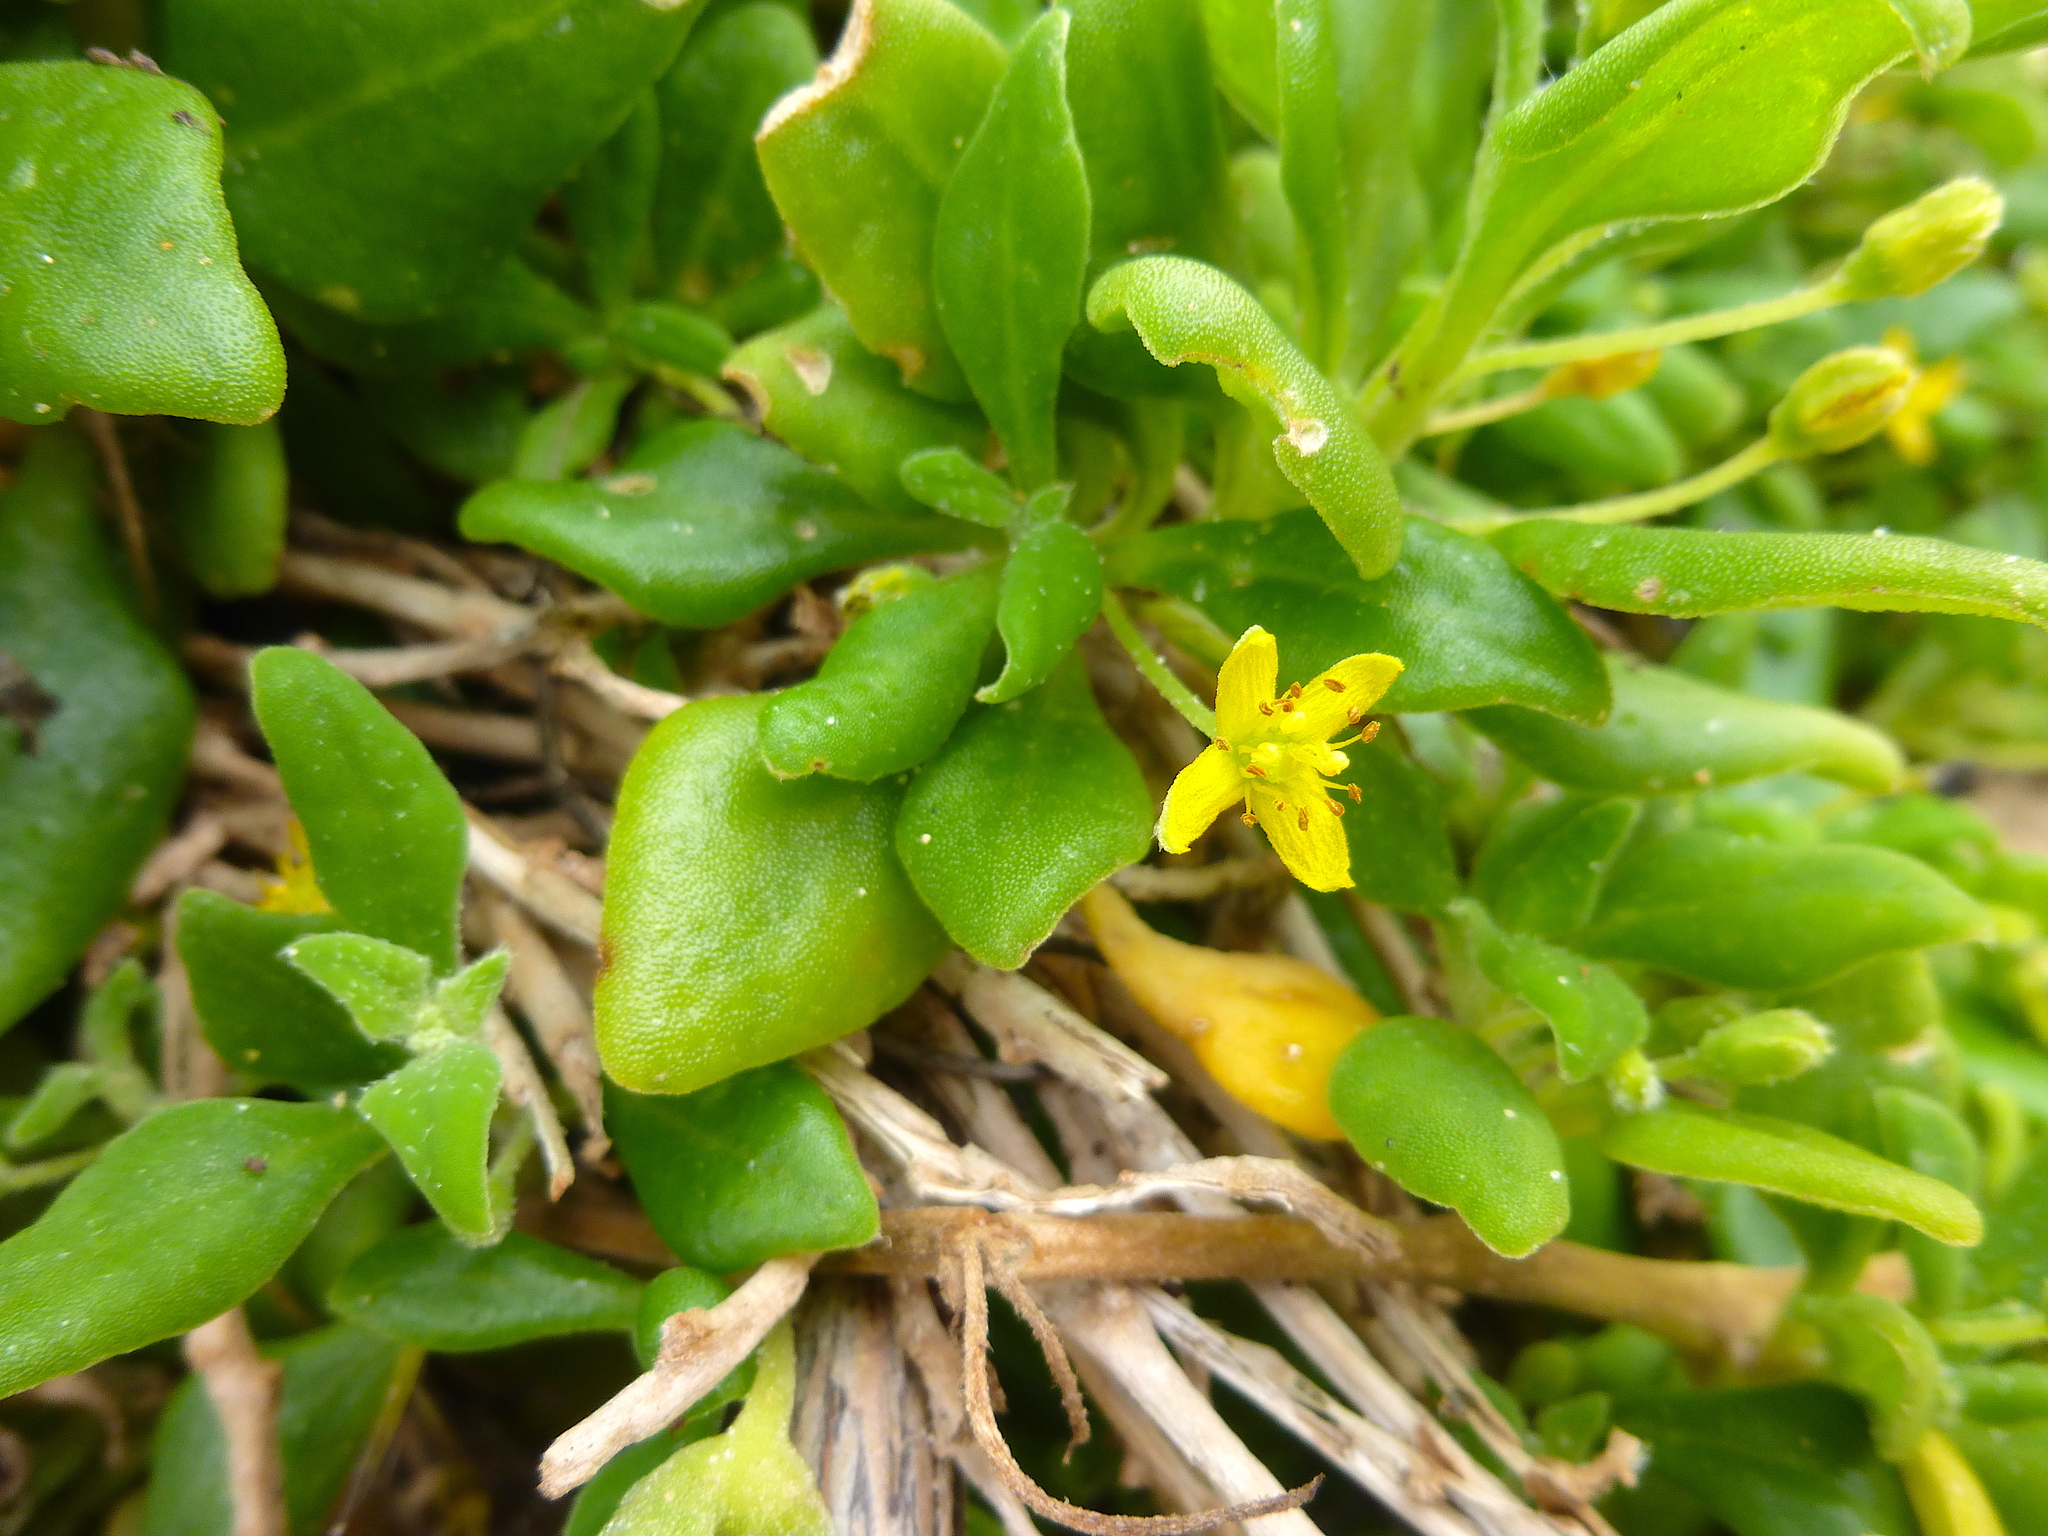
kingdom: Plantae
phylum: Tracheophyta
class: Magnoliopsida
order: Caryophyllales
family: Aizoaceae
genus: Tetragonia
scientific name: Tetragonia implexicoma
